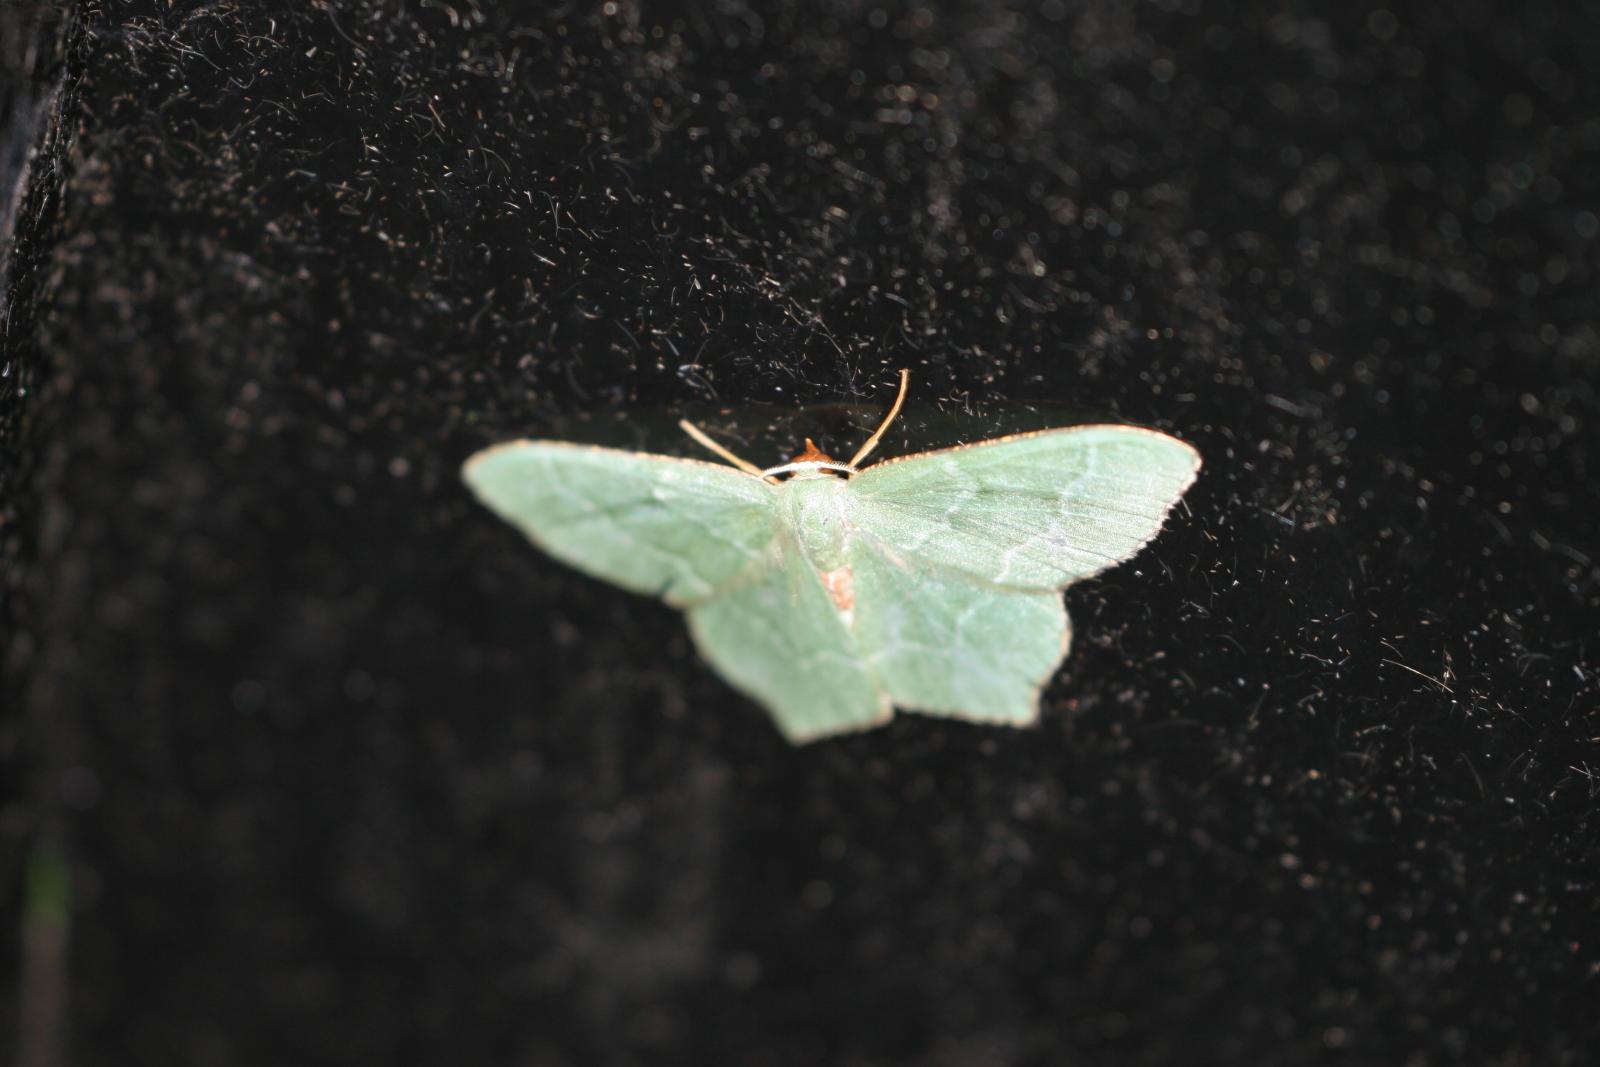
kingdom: Animalia
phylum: Arthropoda
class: Insecta
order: Lepidoptera
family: Geometridae
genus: Hemithea
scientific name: Hemithea aestivaria
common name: Common emerald
